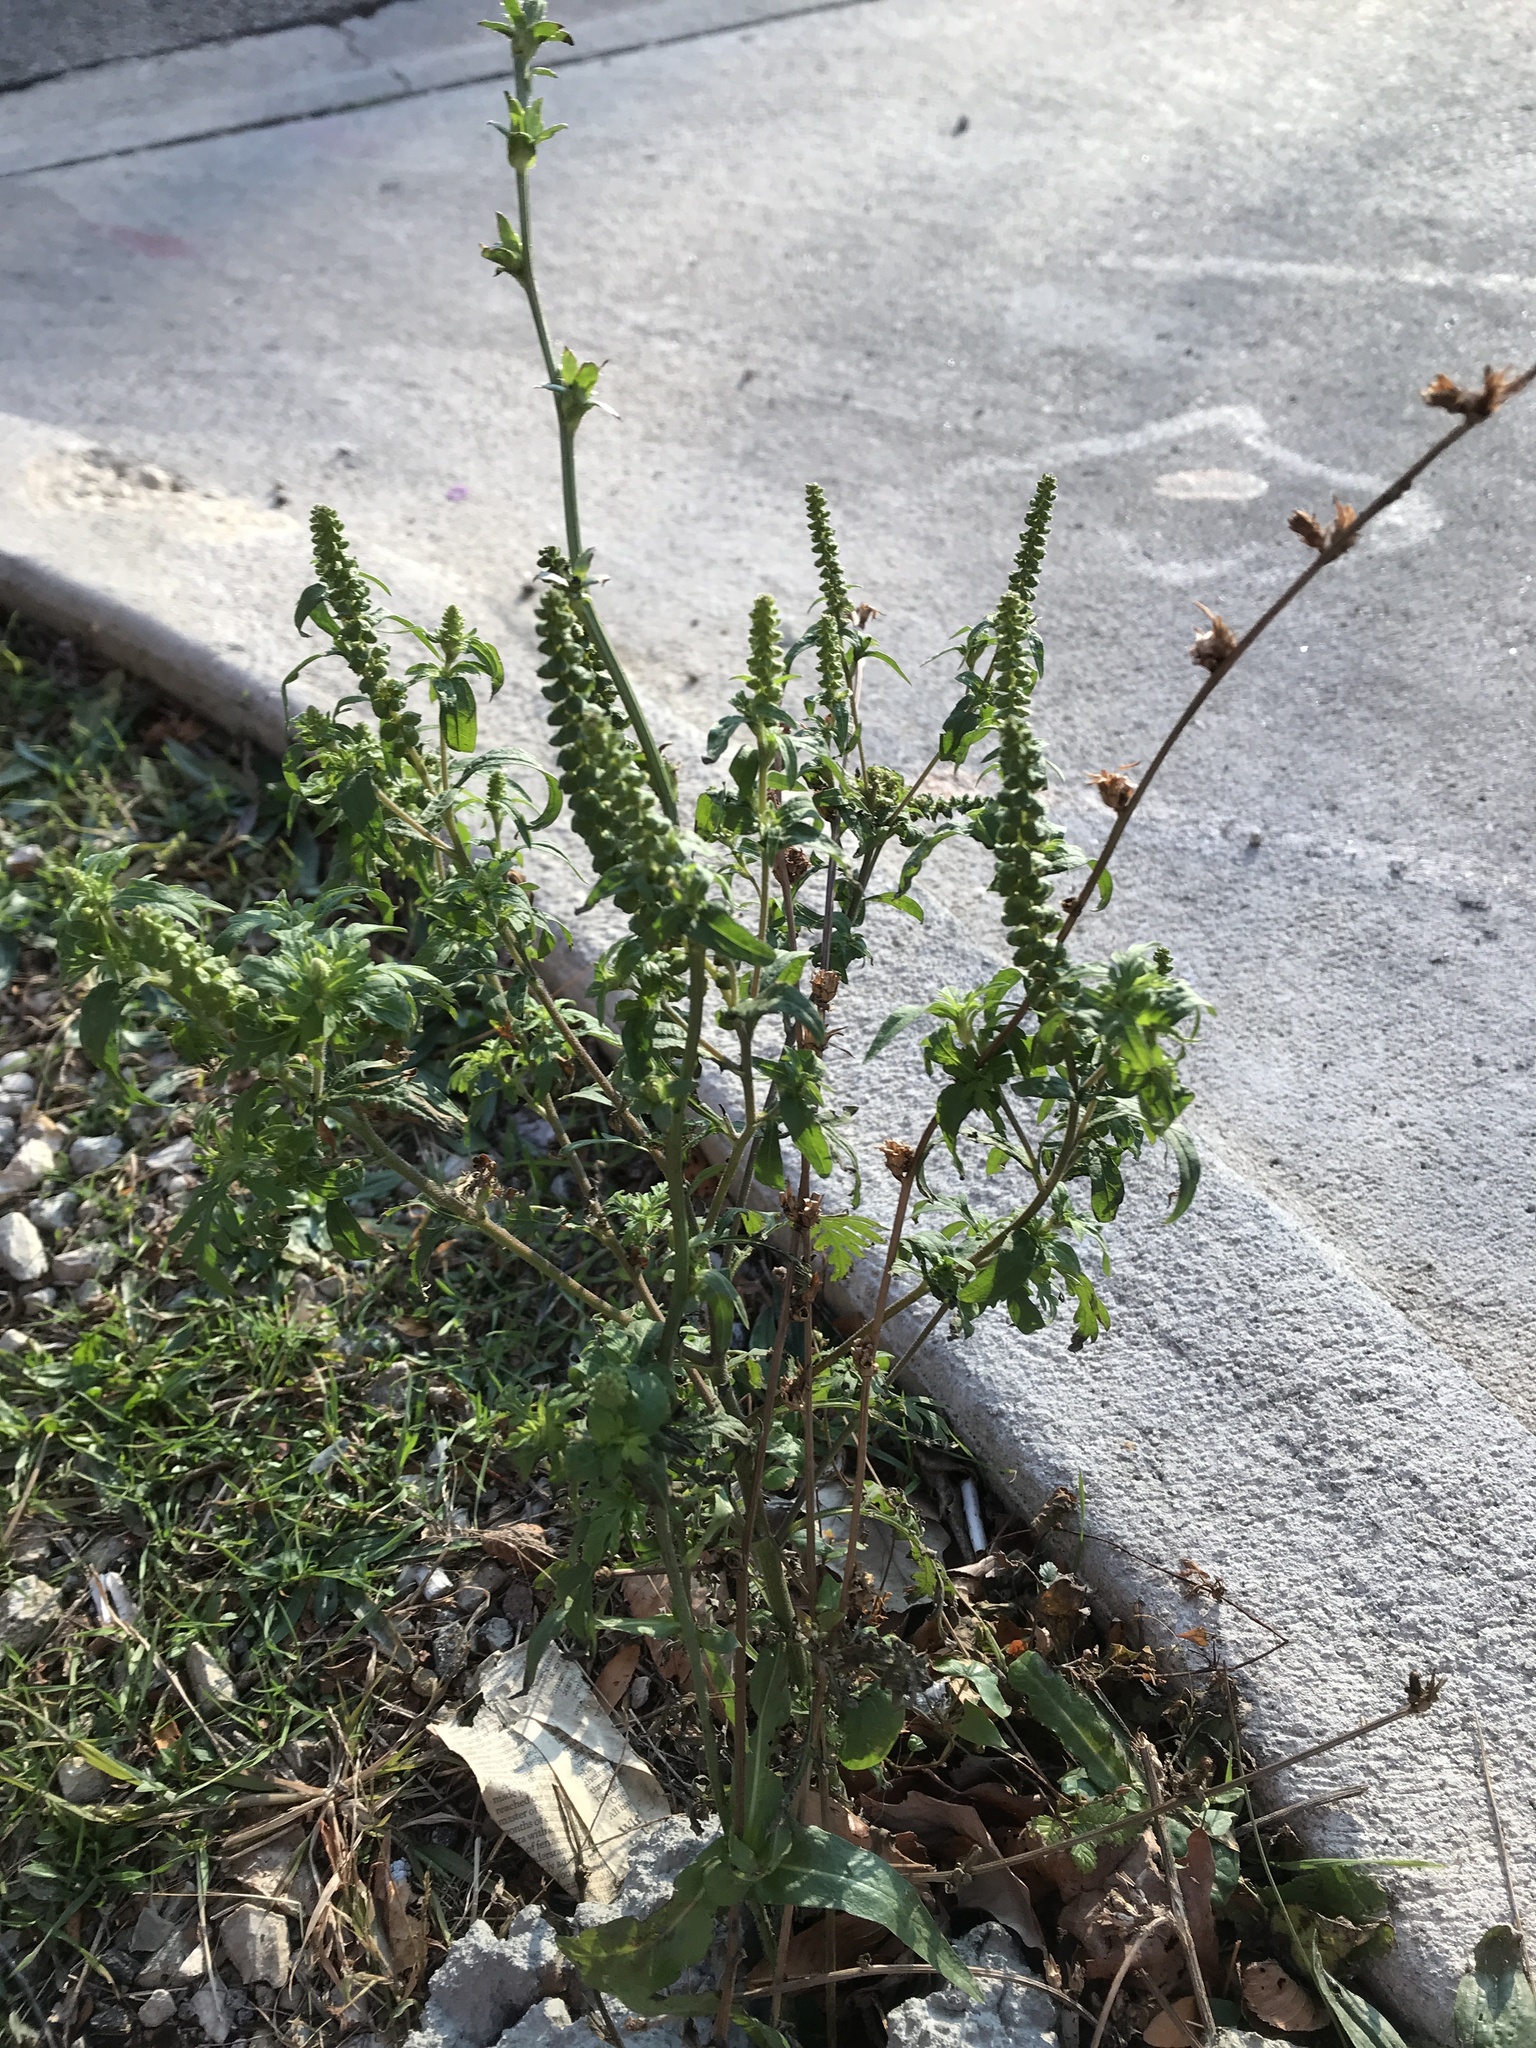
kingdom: Plantae
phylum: Tracheophyta
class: Magnoliopsida
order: Asterales
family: Asteraceae
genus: Ambrosia
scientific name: Ambrosia artemisiifolia
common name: Annual ragweed
